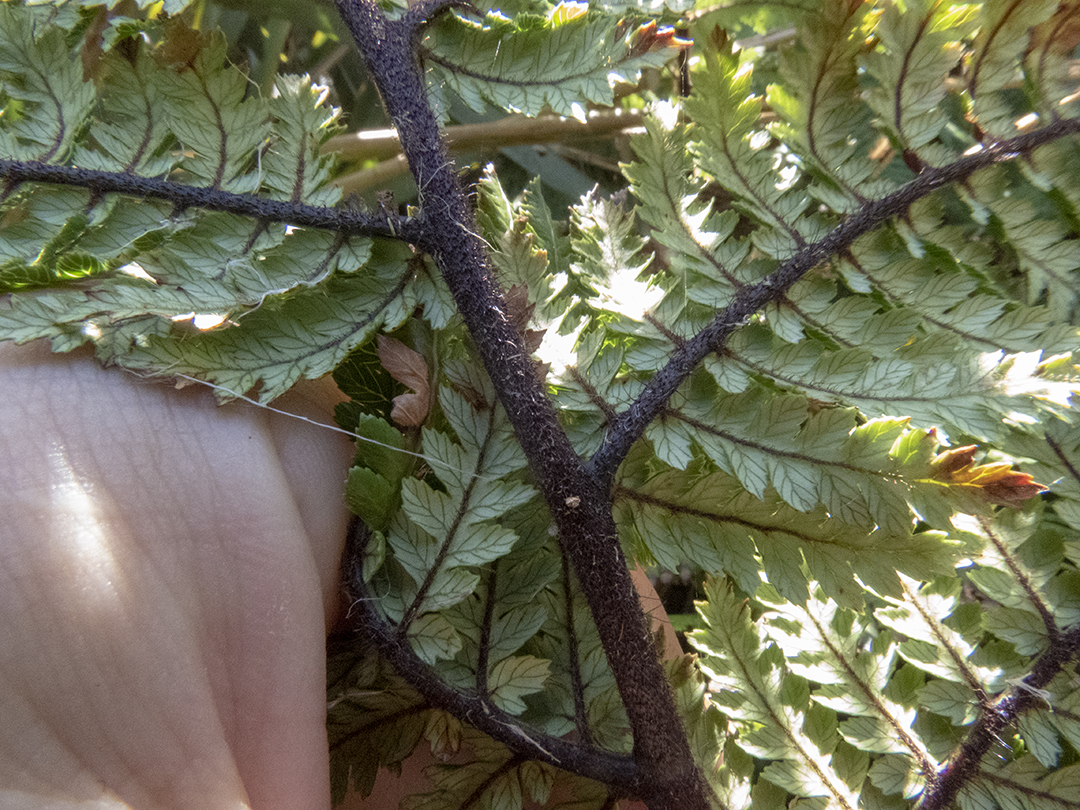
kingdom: Plantae
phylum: Tracheophyta
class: Polypodiopsida
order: Cyatheales
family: Dicksoniaceae
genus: Dicksonia
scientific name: Dicksonia squarrosa
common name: Hard treefern
